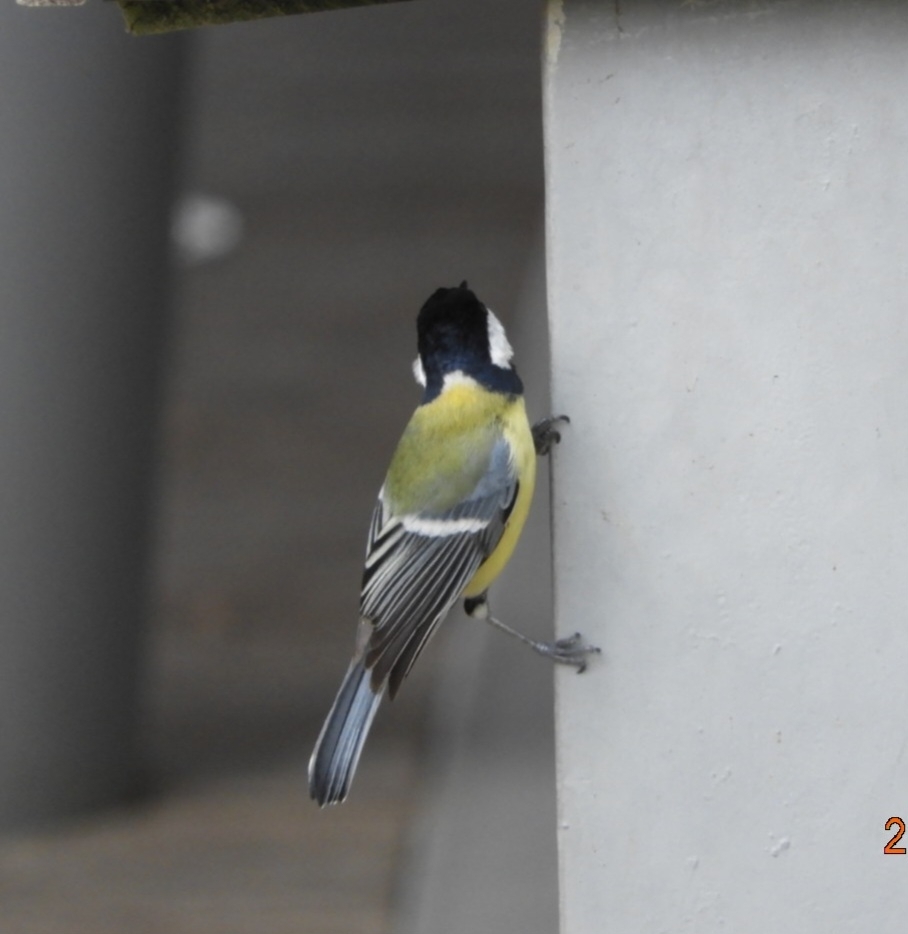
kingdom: Animalia
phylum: Chordata
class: Aves
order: Passeriformes
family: Paridae
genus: Parus
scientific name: Parus major
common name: Great tit
